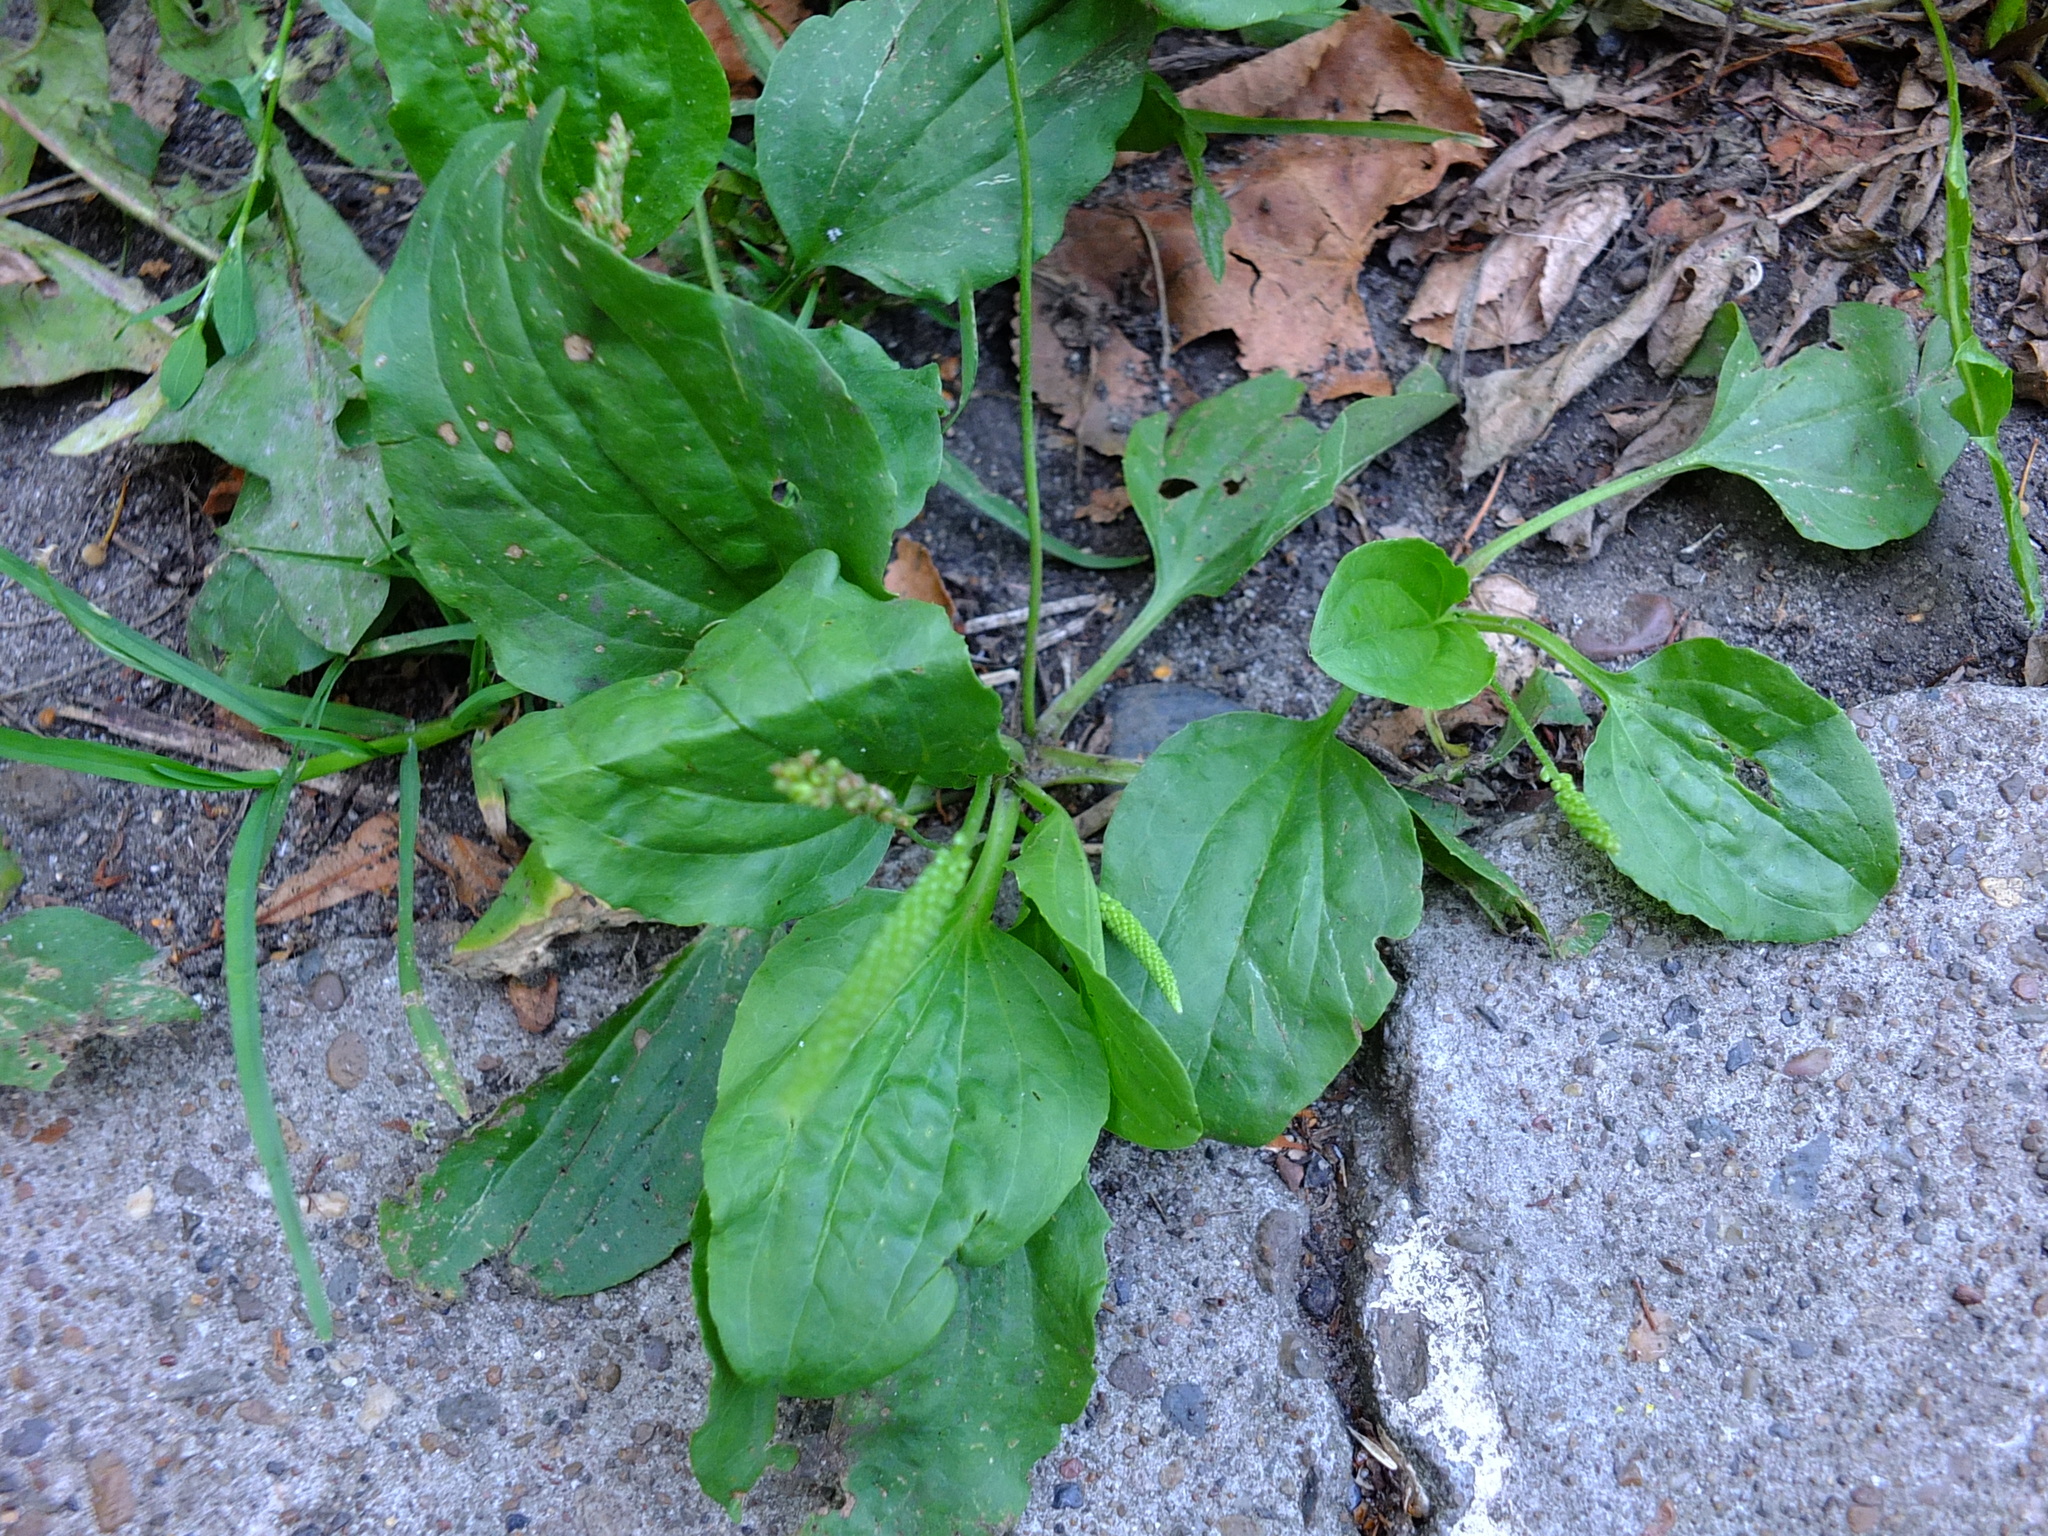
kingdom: Plantae
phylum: Tracheophyta
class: Magnoliopsida
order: Lamiales
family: Plantaginaceae
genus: Plantago
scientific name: Plantago major
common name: Common plantain
